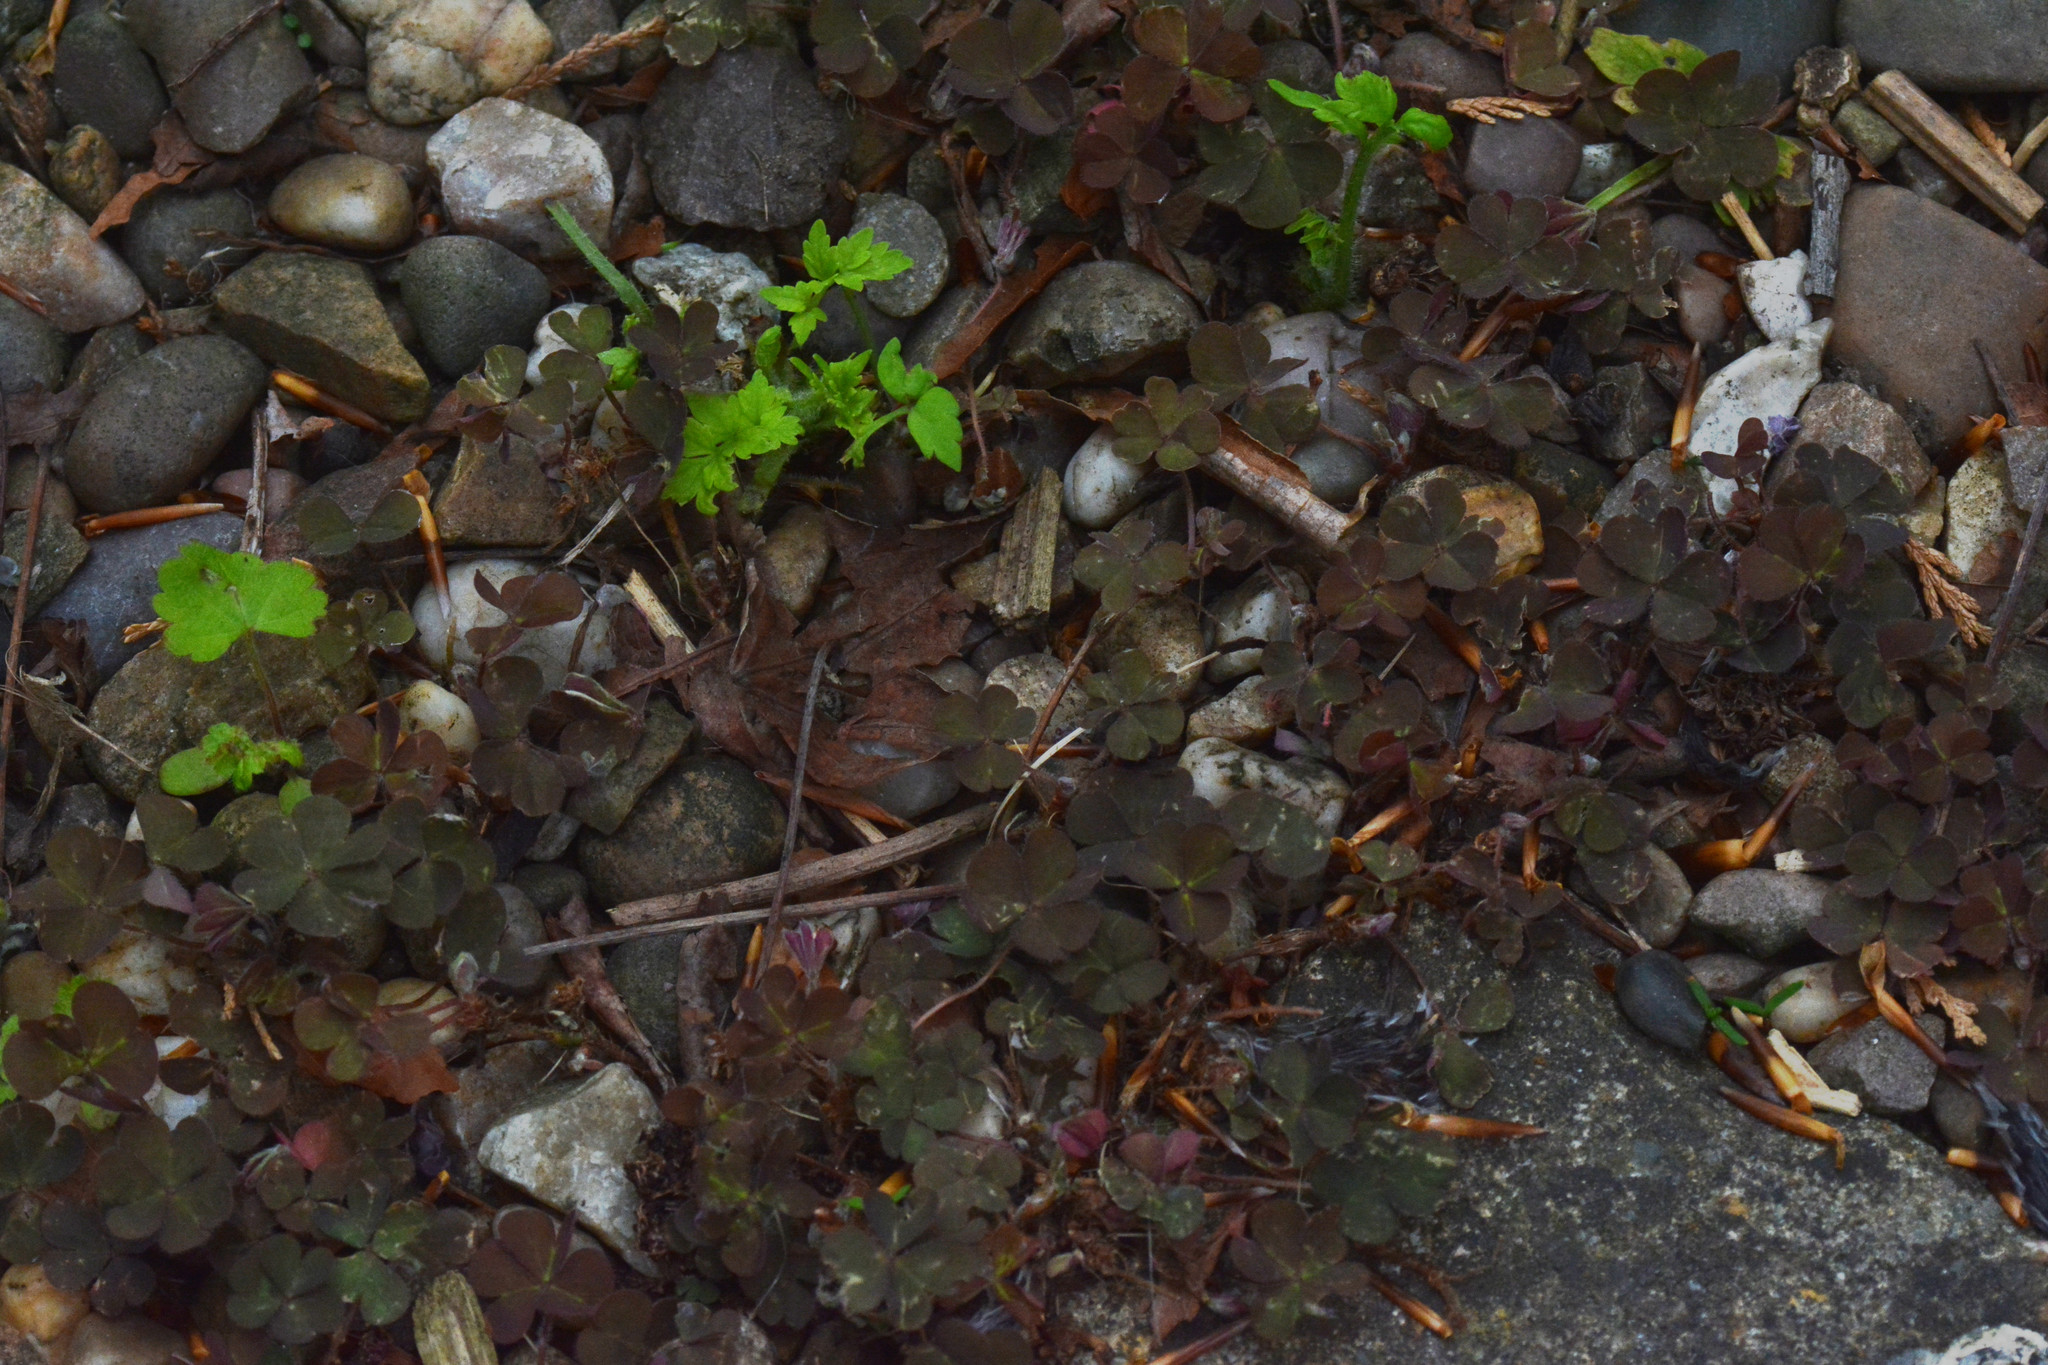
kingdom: Plantae
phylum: Tracheophyta
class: Magnoliopsida
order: Oxalidales
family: Oxalidaceae
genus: Oxalis
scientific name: Oxalis corniculata
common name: Procumbent yellow-sorrel
